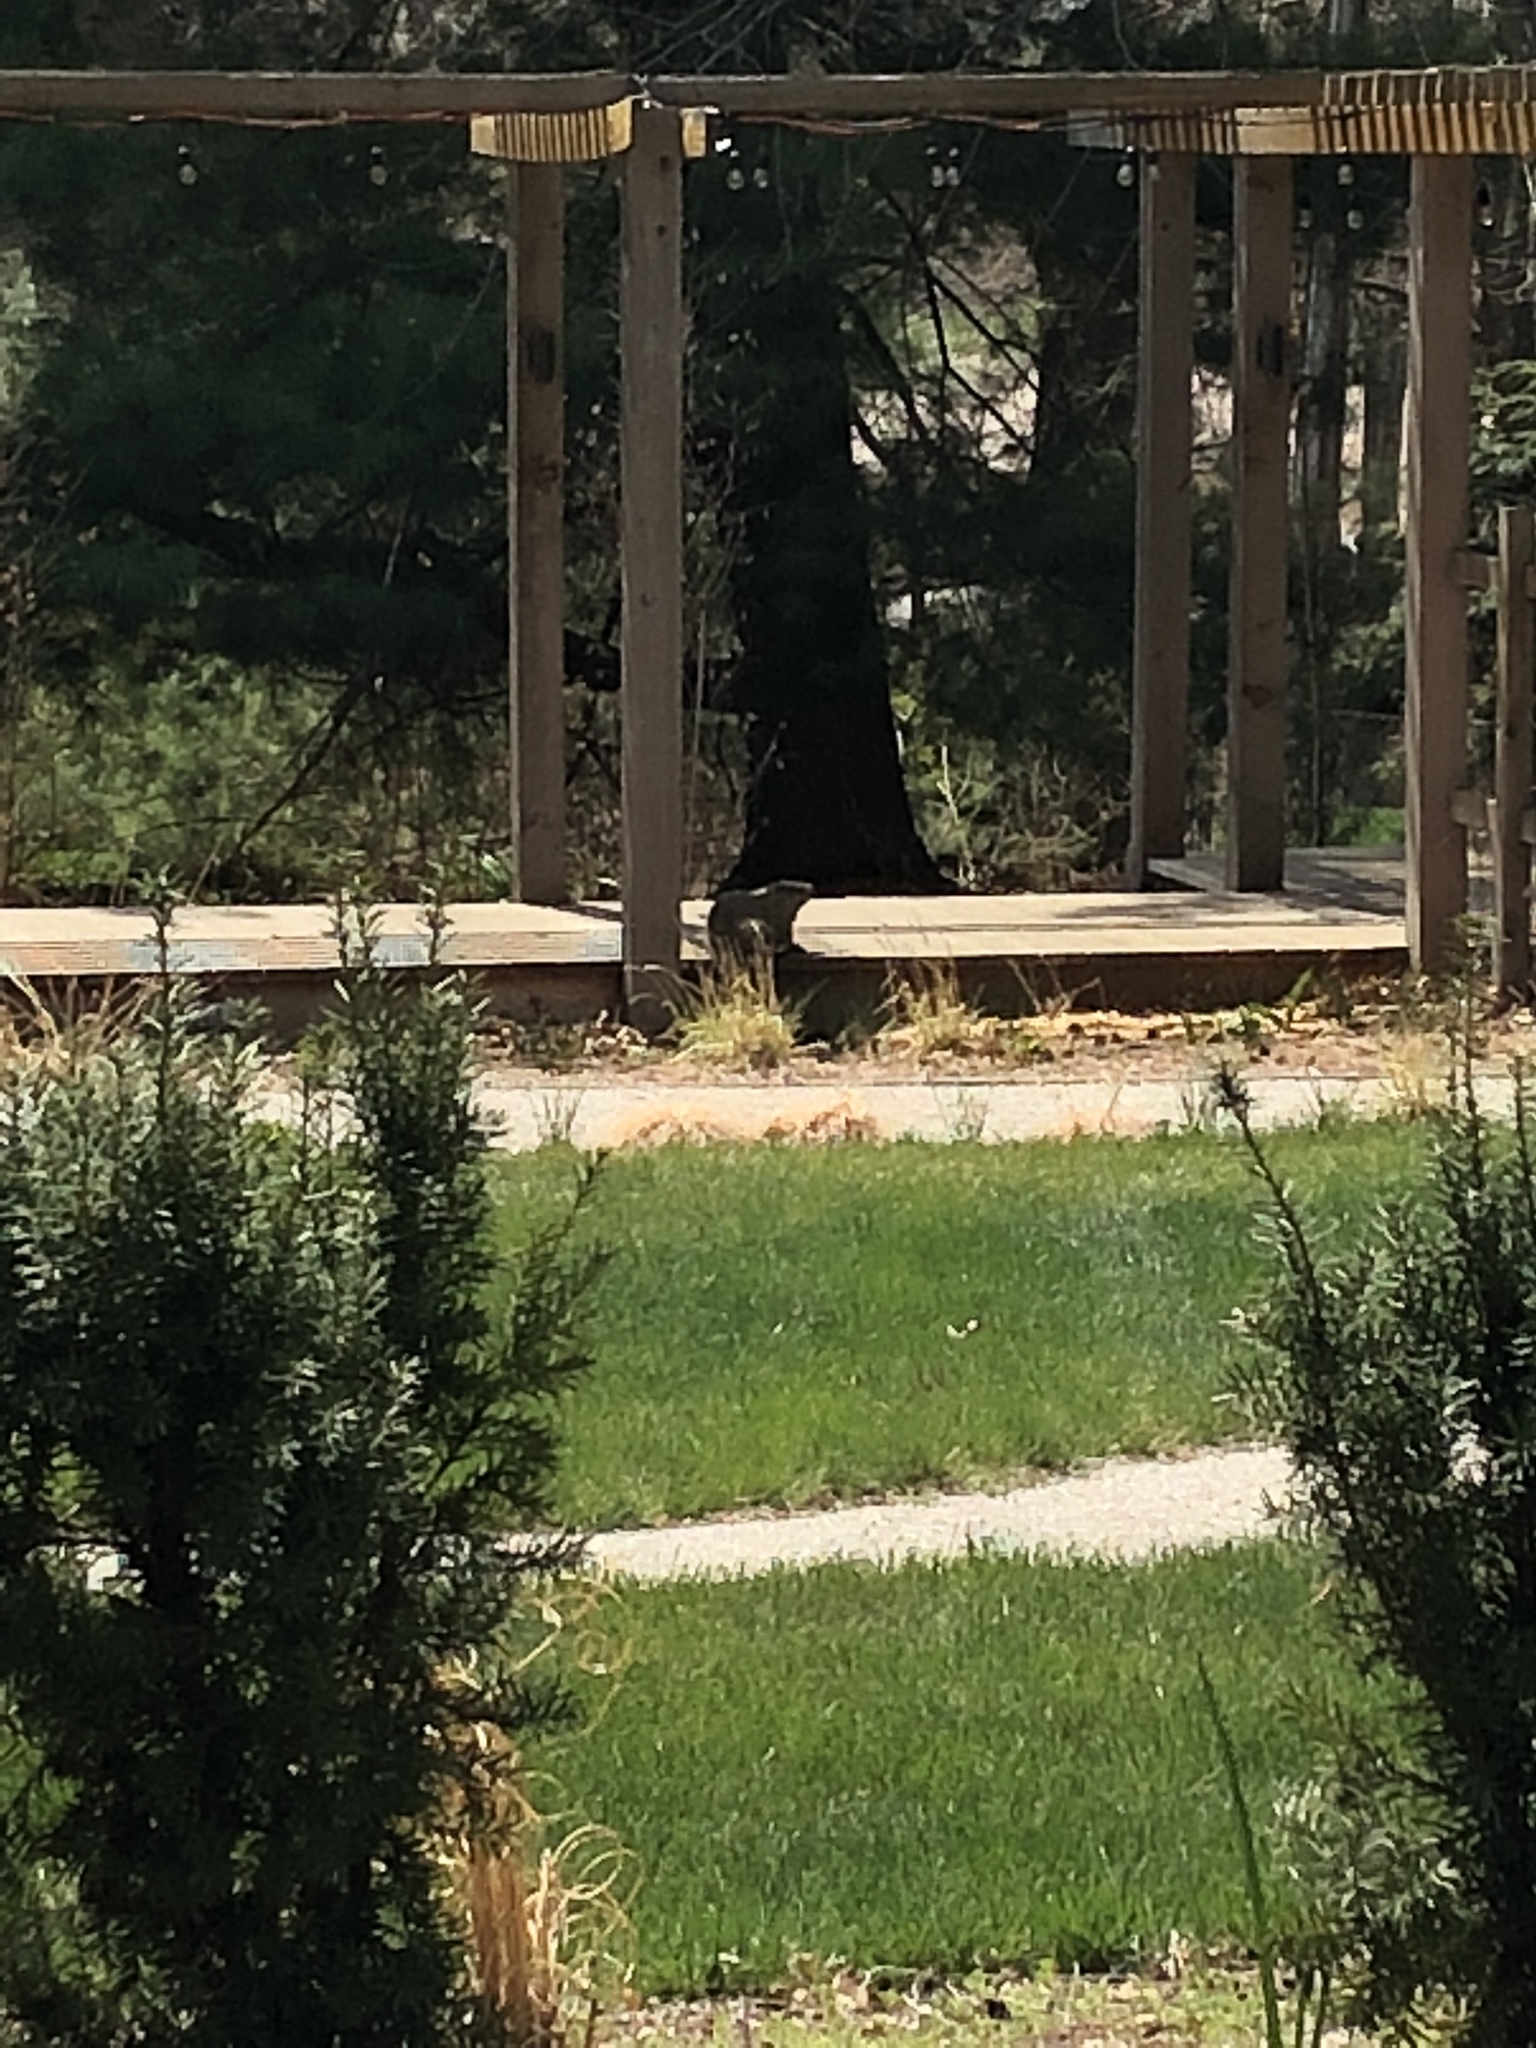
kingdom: Animalia
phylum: Chordata
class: Mammalia
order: Rodentia
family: Sciuridae
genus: Marmota
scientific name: Marmota monax
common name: Groundhog
